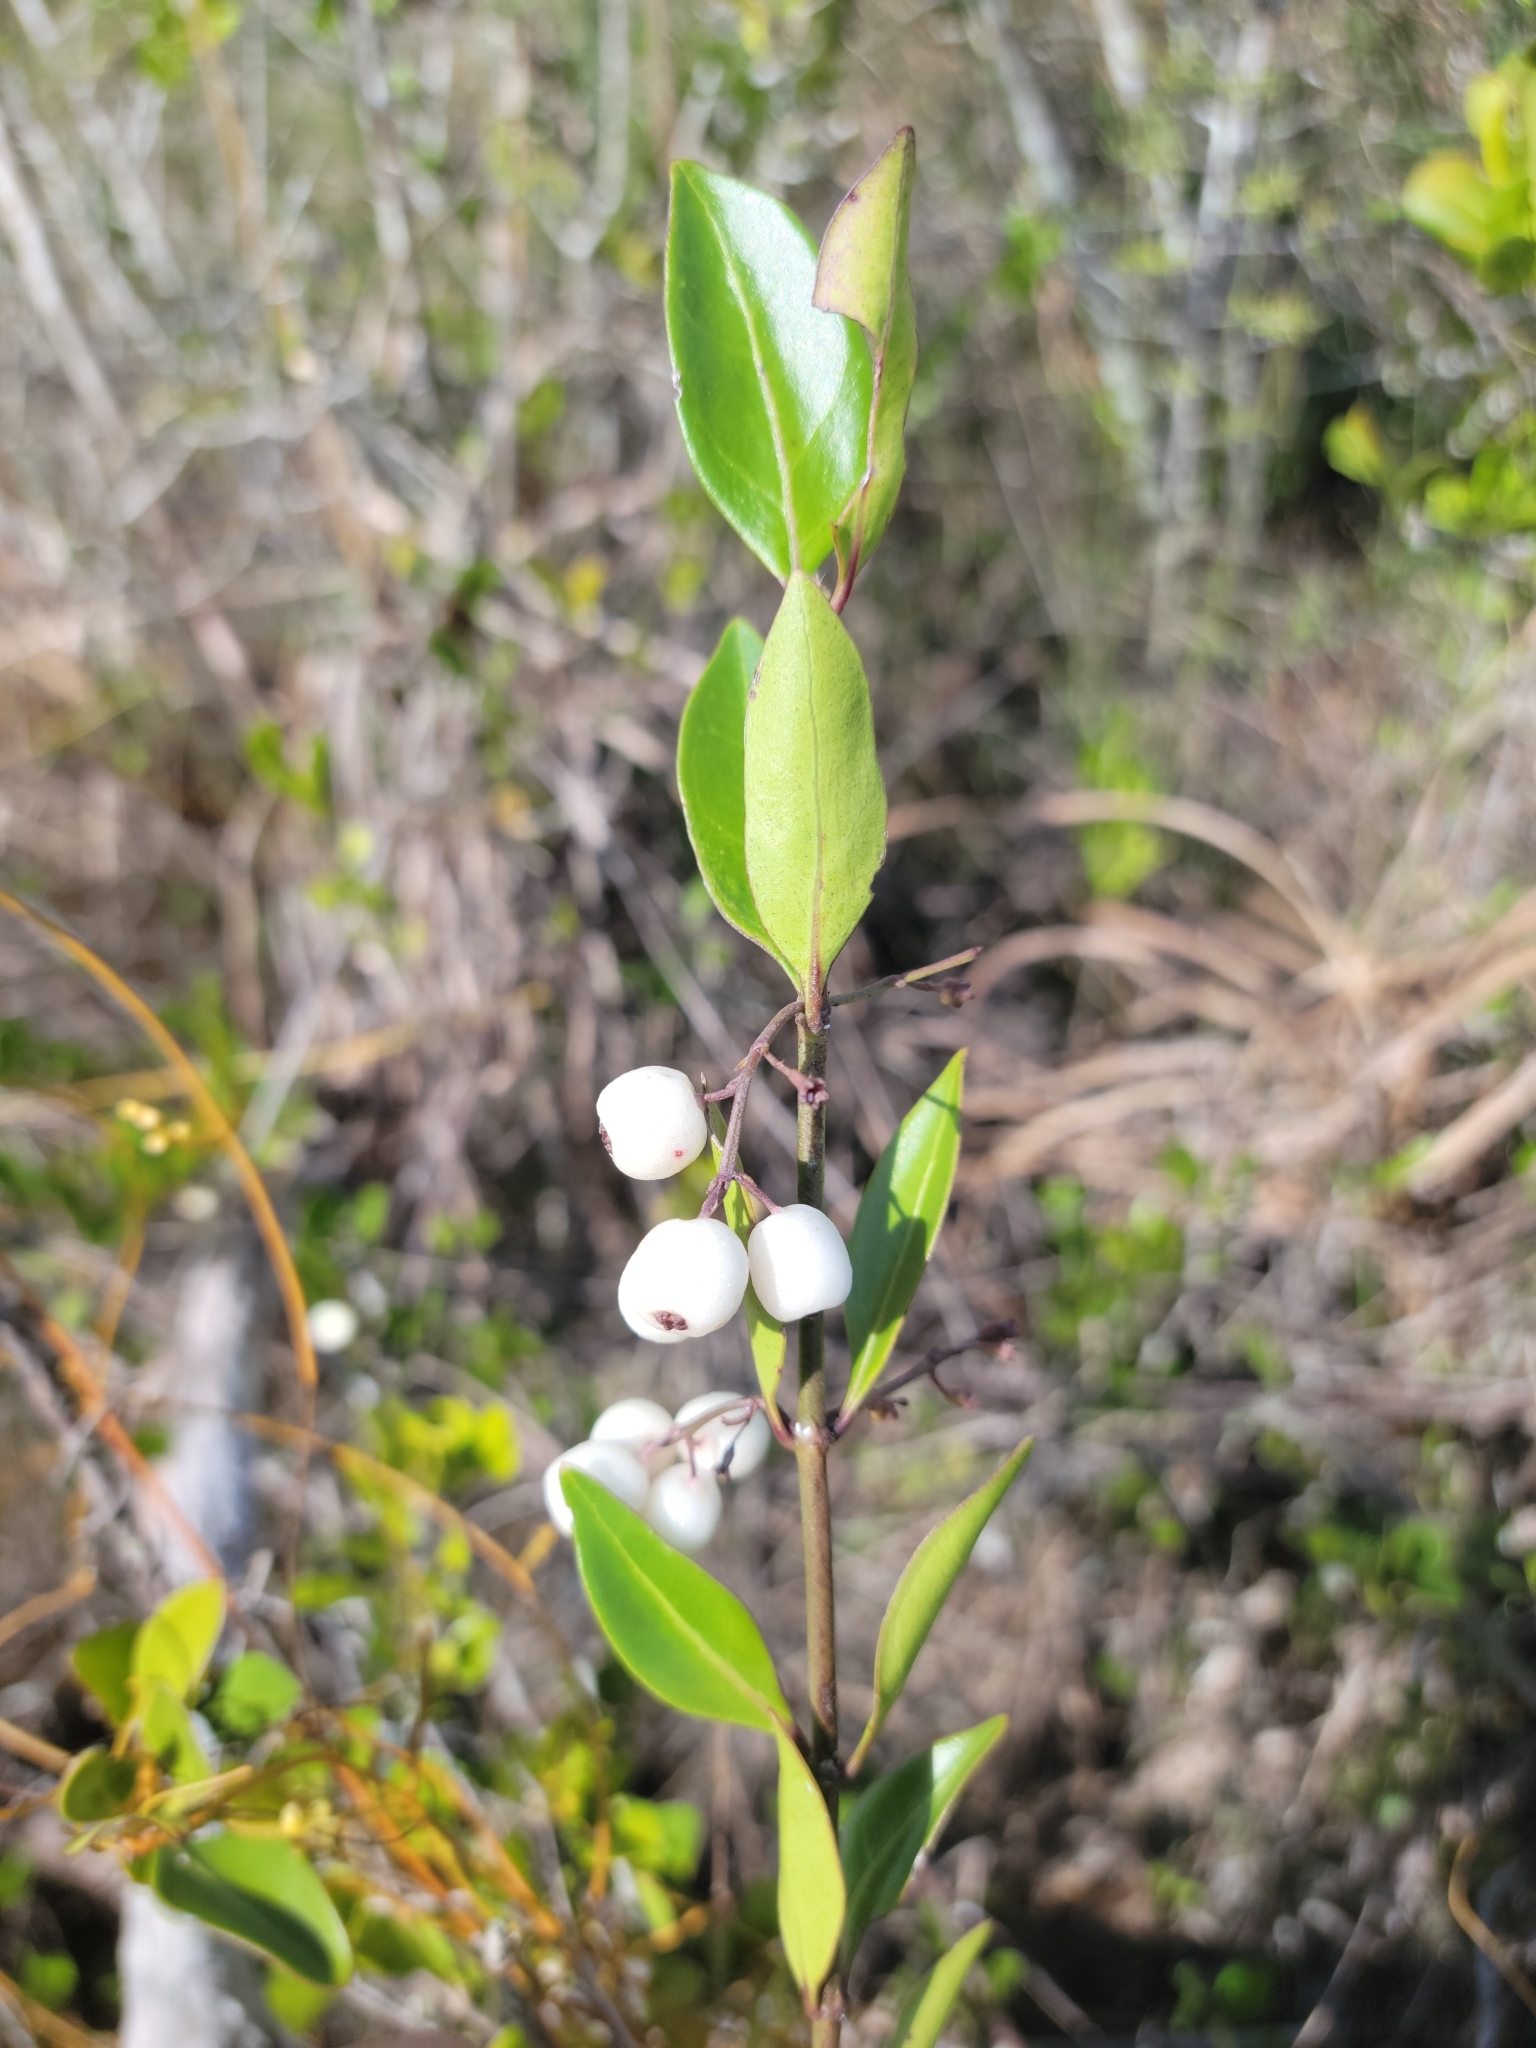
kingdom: Plantae
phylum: Tracheophyta
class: Magnoliopsida
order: Gentianales
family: Rubiaceae
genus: Chiococca
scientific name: Chiococca alba
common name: Snowberry
